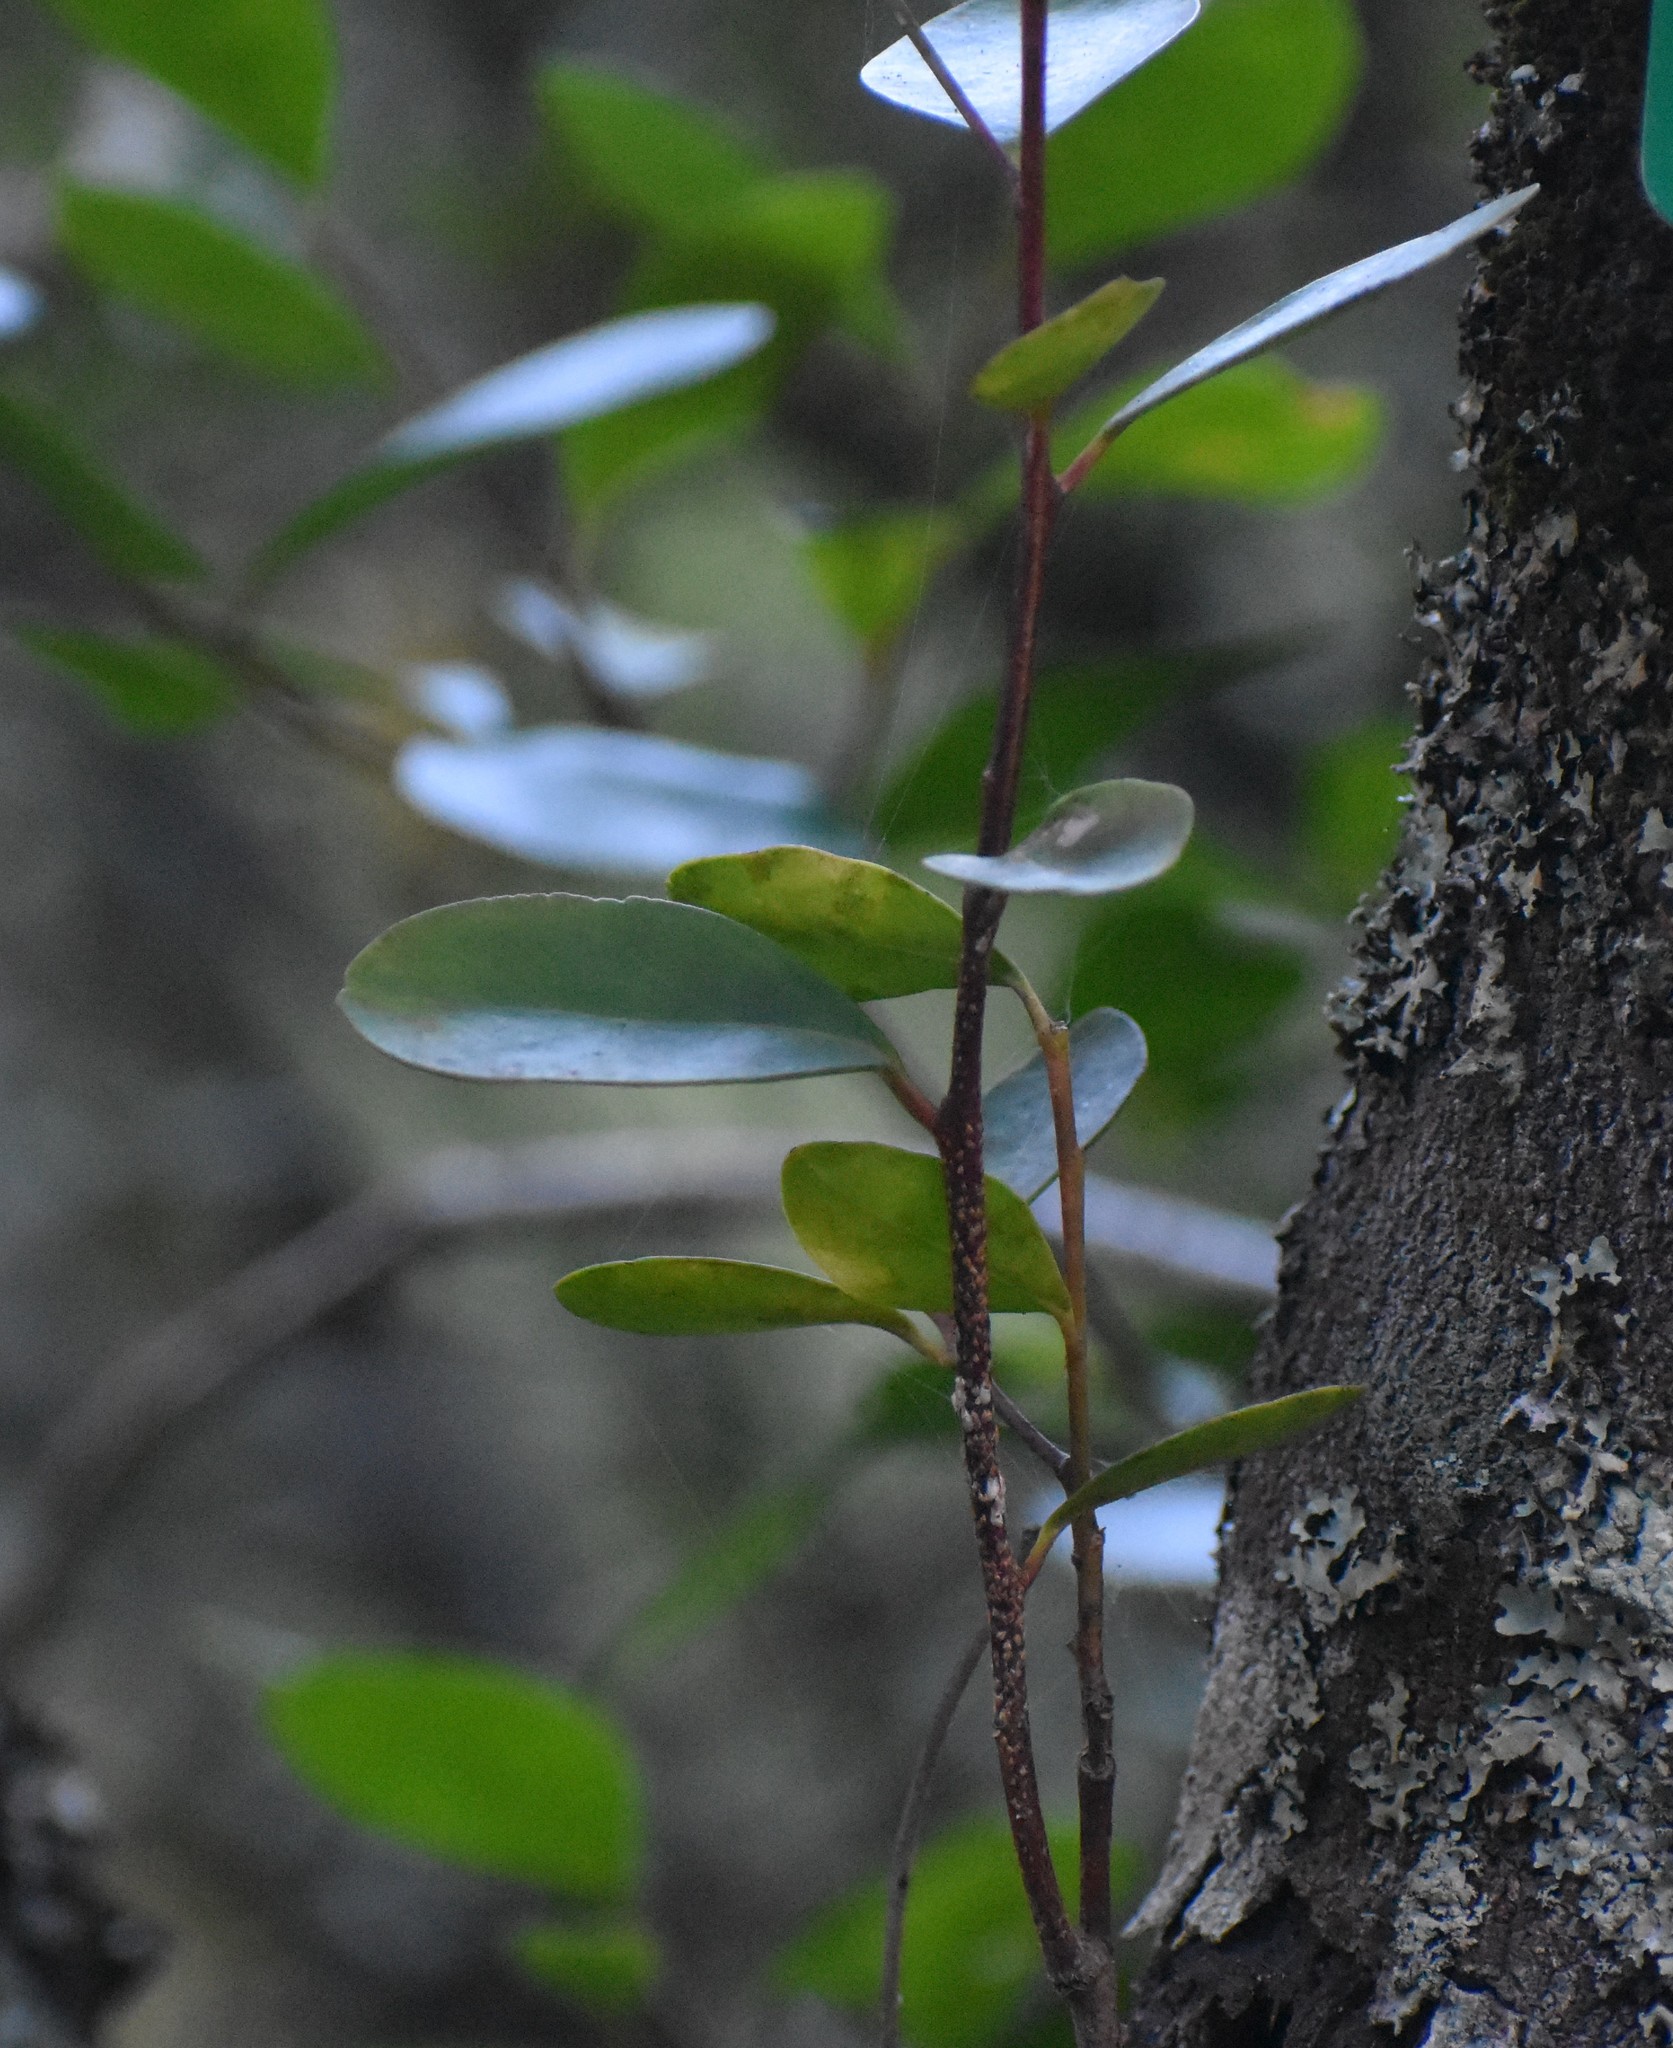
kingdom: Plantae
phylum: Tracheophyta
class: Magnoliopsida
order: Celastrales
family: Celastraceae
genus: Pterocelastrus
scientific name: Pterocelastrus tricuspidatus
